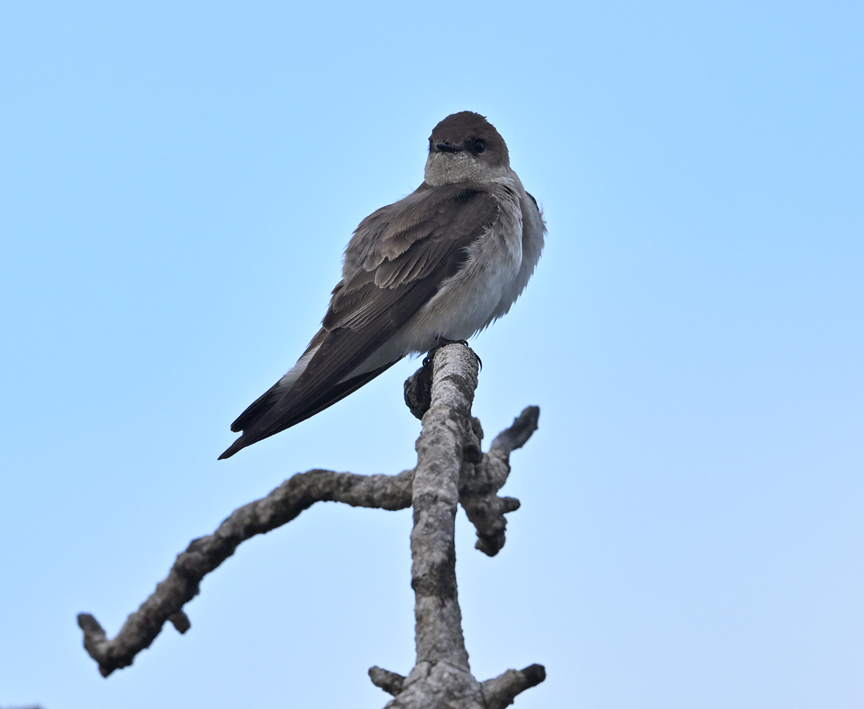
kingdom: Animalia
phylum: Chordata
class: Aves
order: Passeriformes
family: Hirundinidae
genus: Stelgidopteryx
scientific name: Stelgidopteryx serripennis
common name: Northern rough-winged swallow
